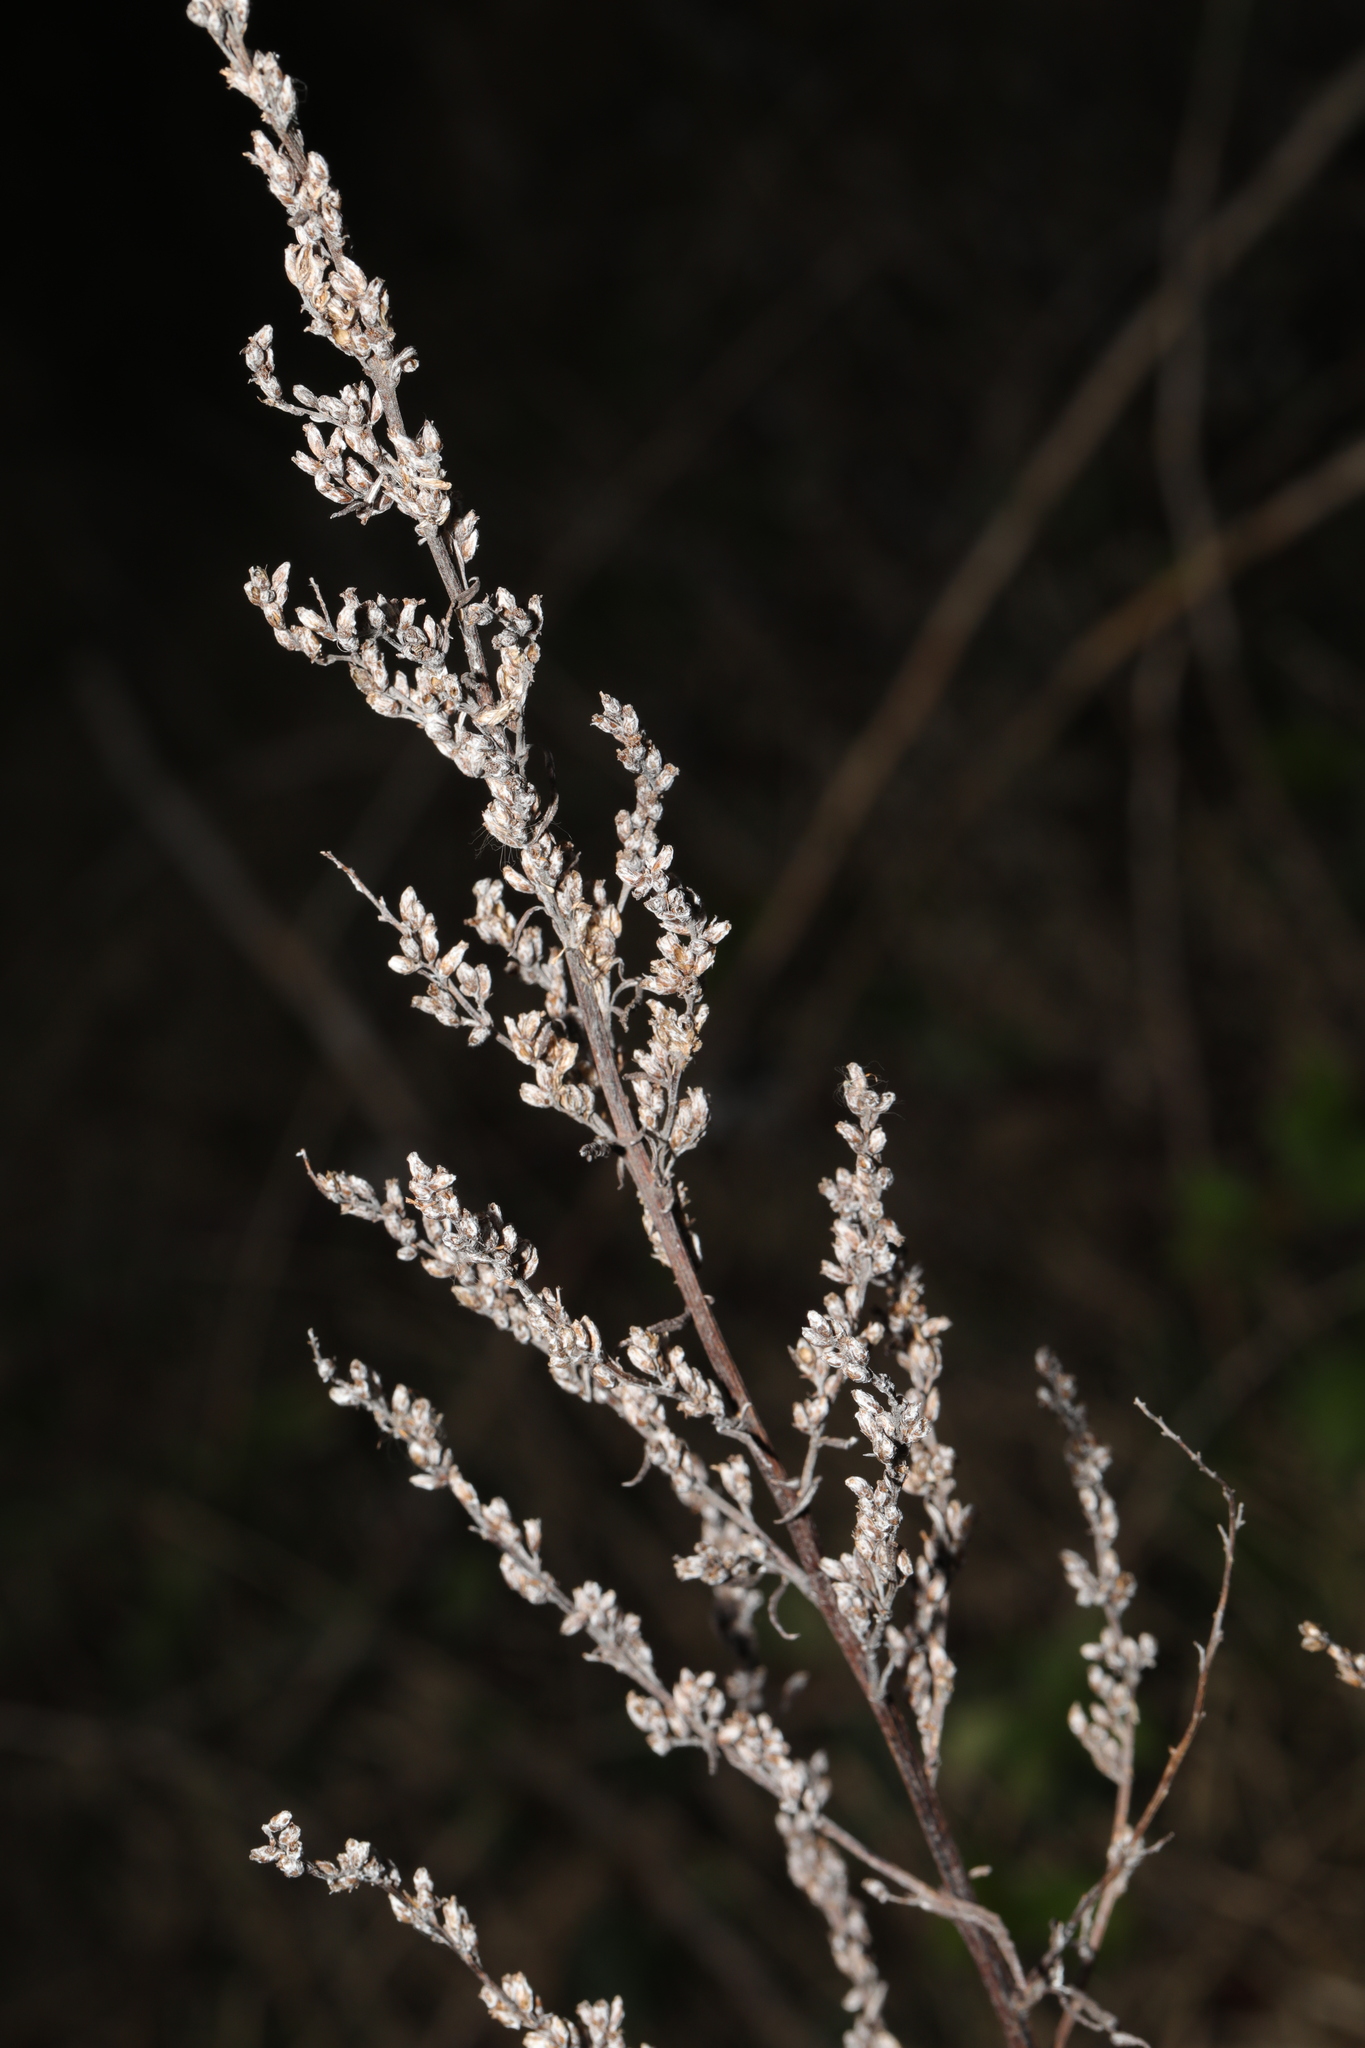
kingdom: Plantae
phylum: Tracheophyta
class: Magnoliopsida
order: Asterales
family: Asteraceae
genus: Artemisia
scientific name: Artemisia vulgaris
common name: Mugwort
